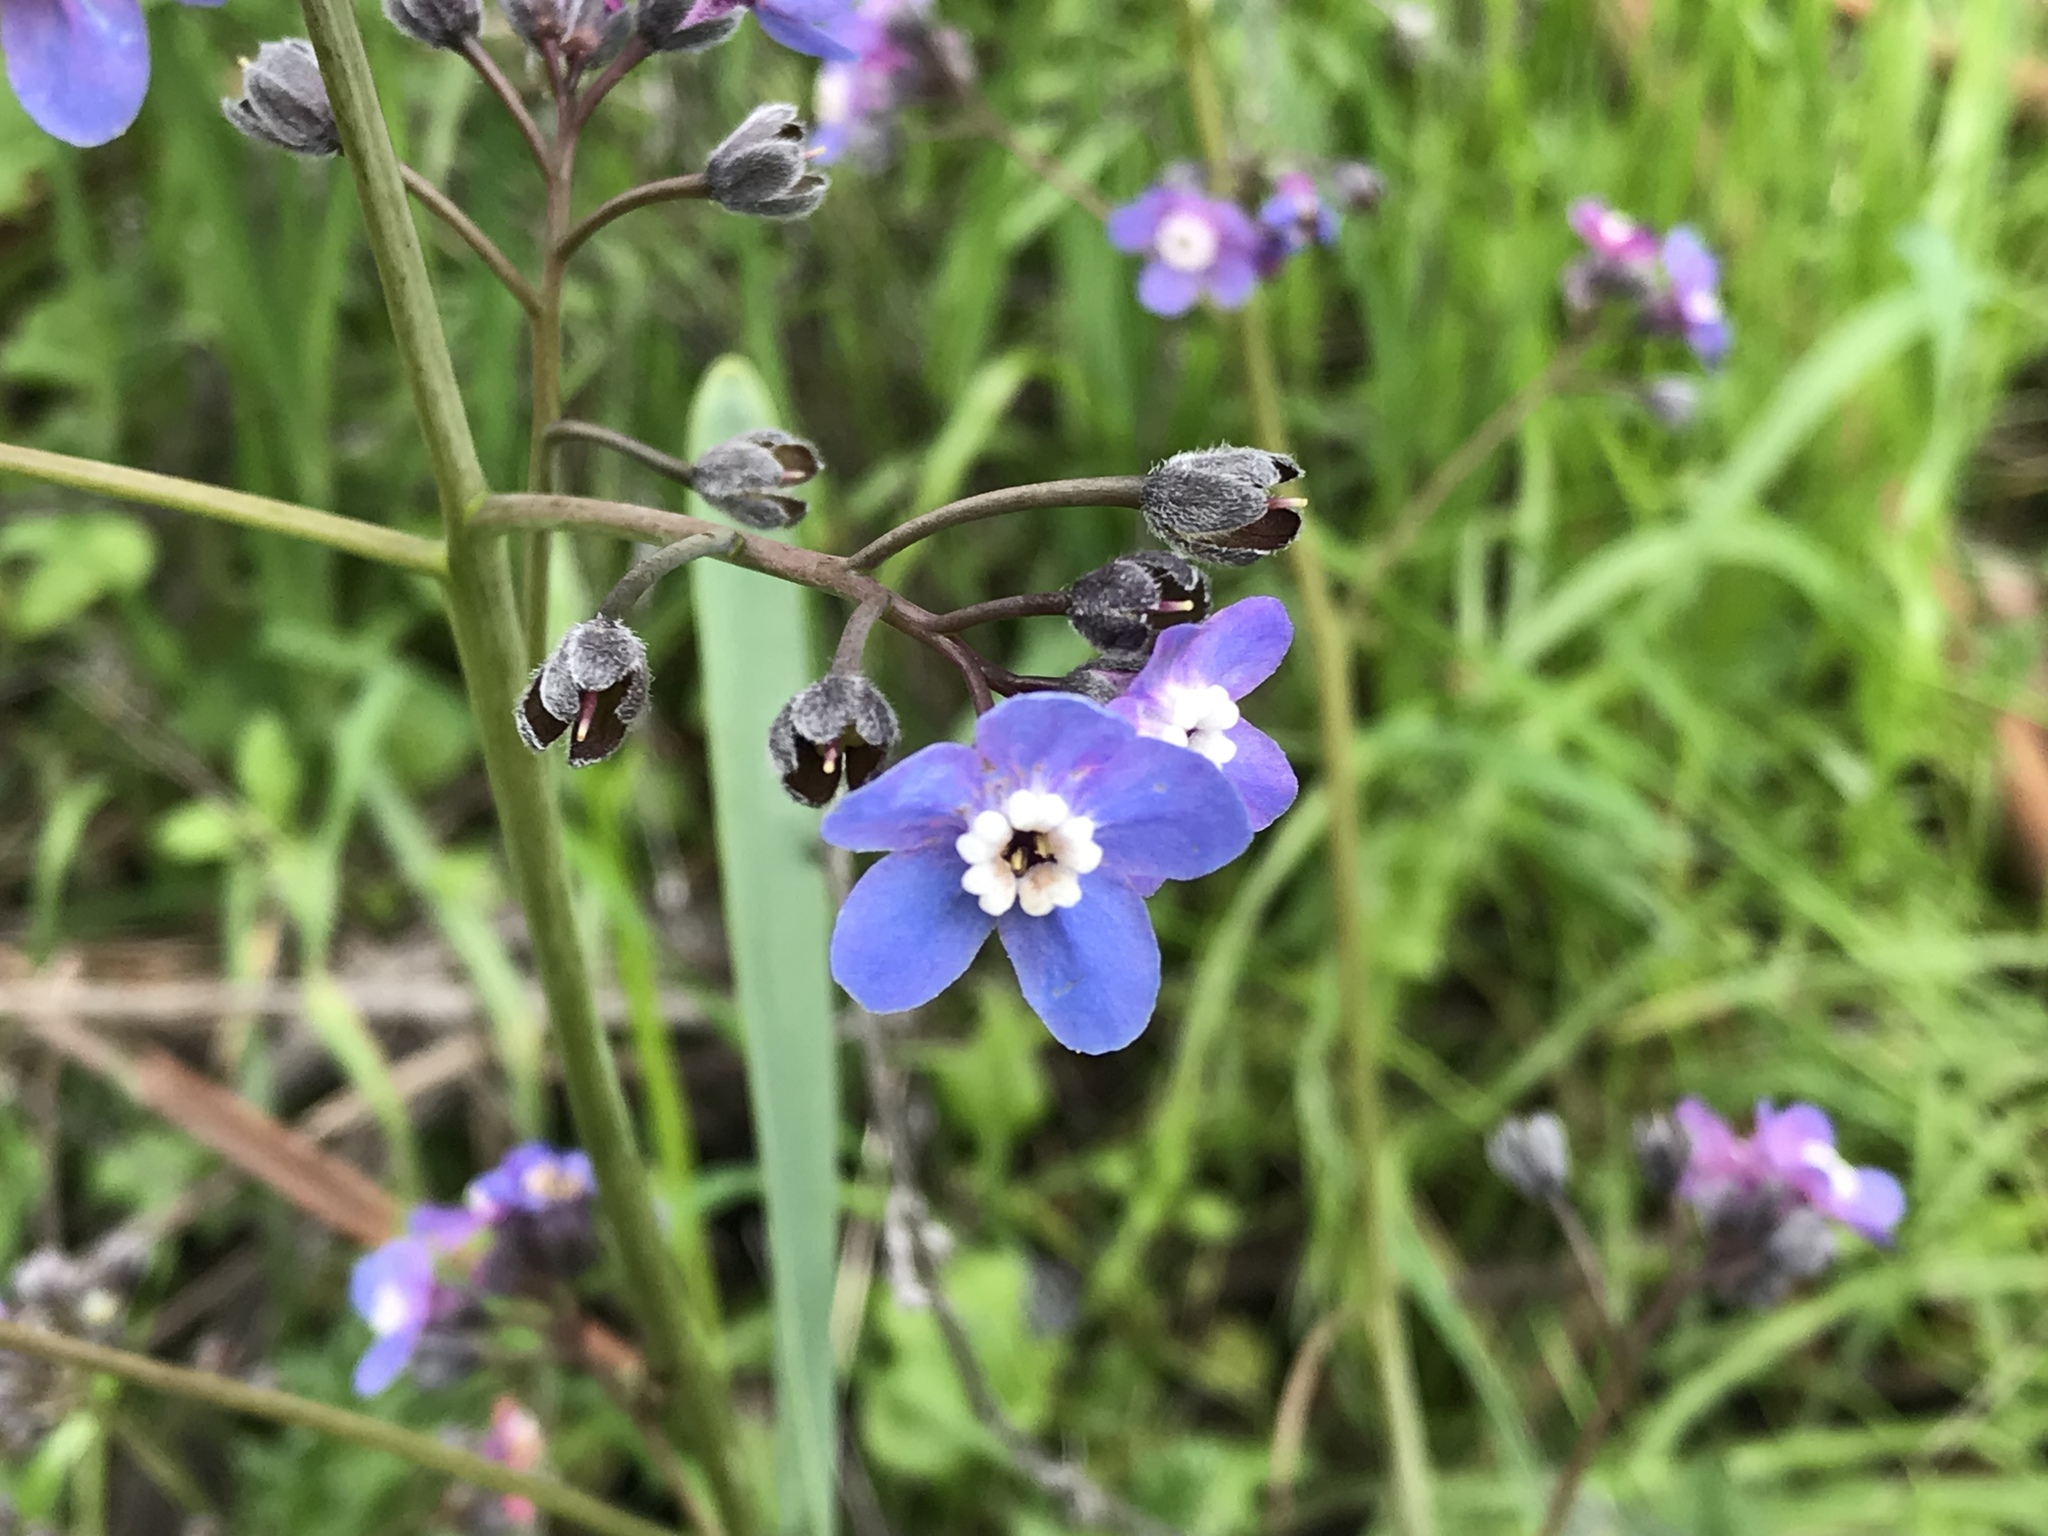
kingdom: Plantae
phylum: Tracheophyta
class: Magnoliopsida
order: Boraginales
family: Boraginaceae
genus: Adelinia
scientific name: Adelinia grande
